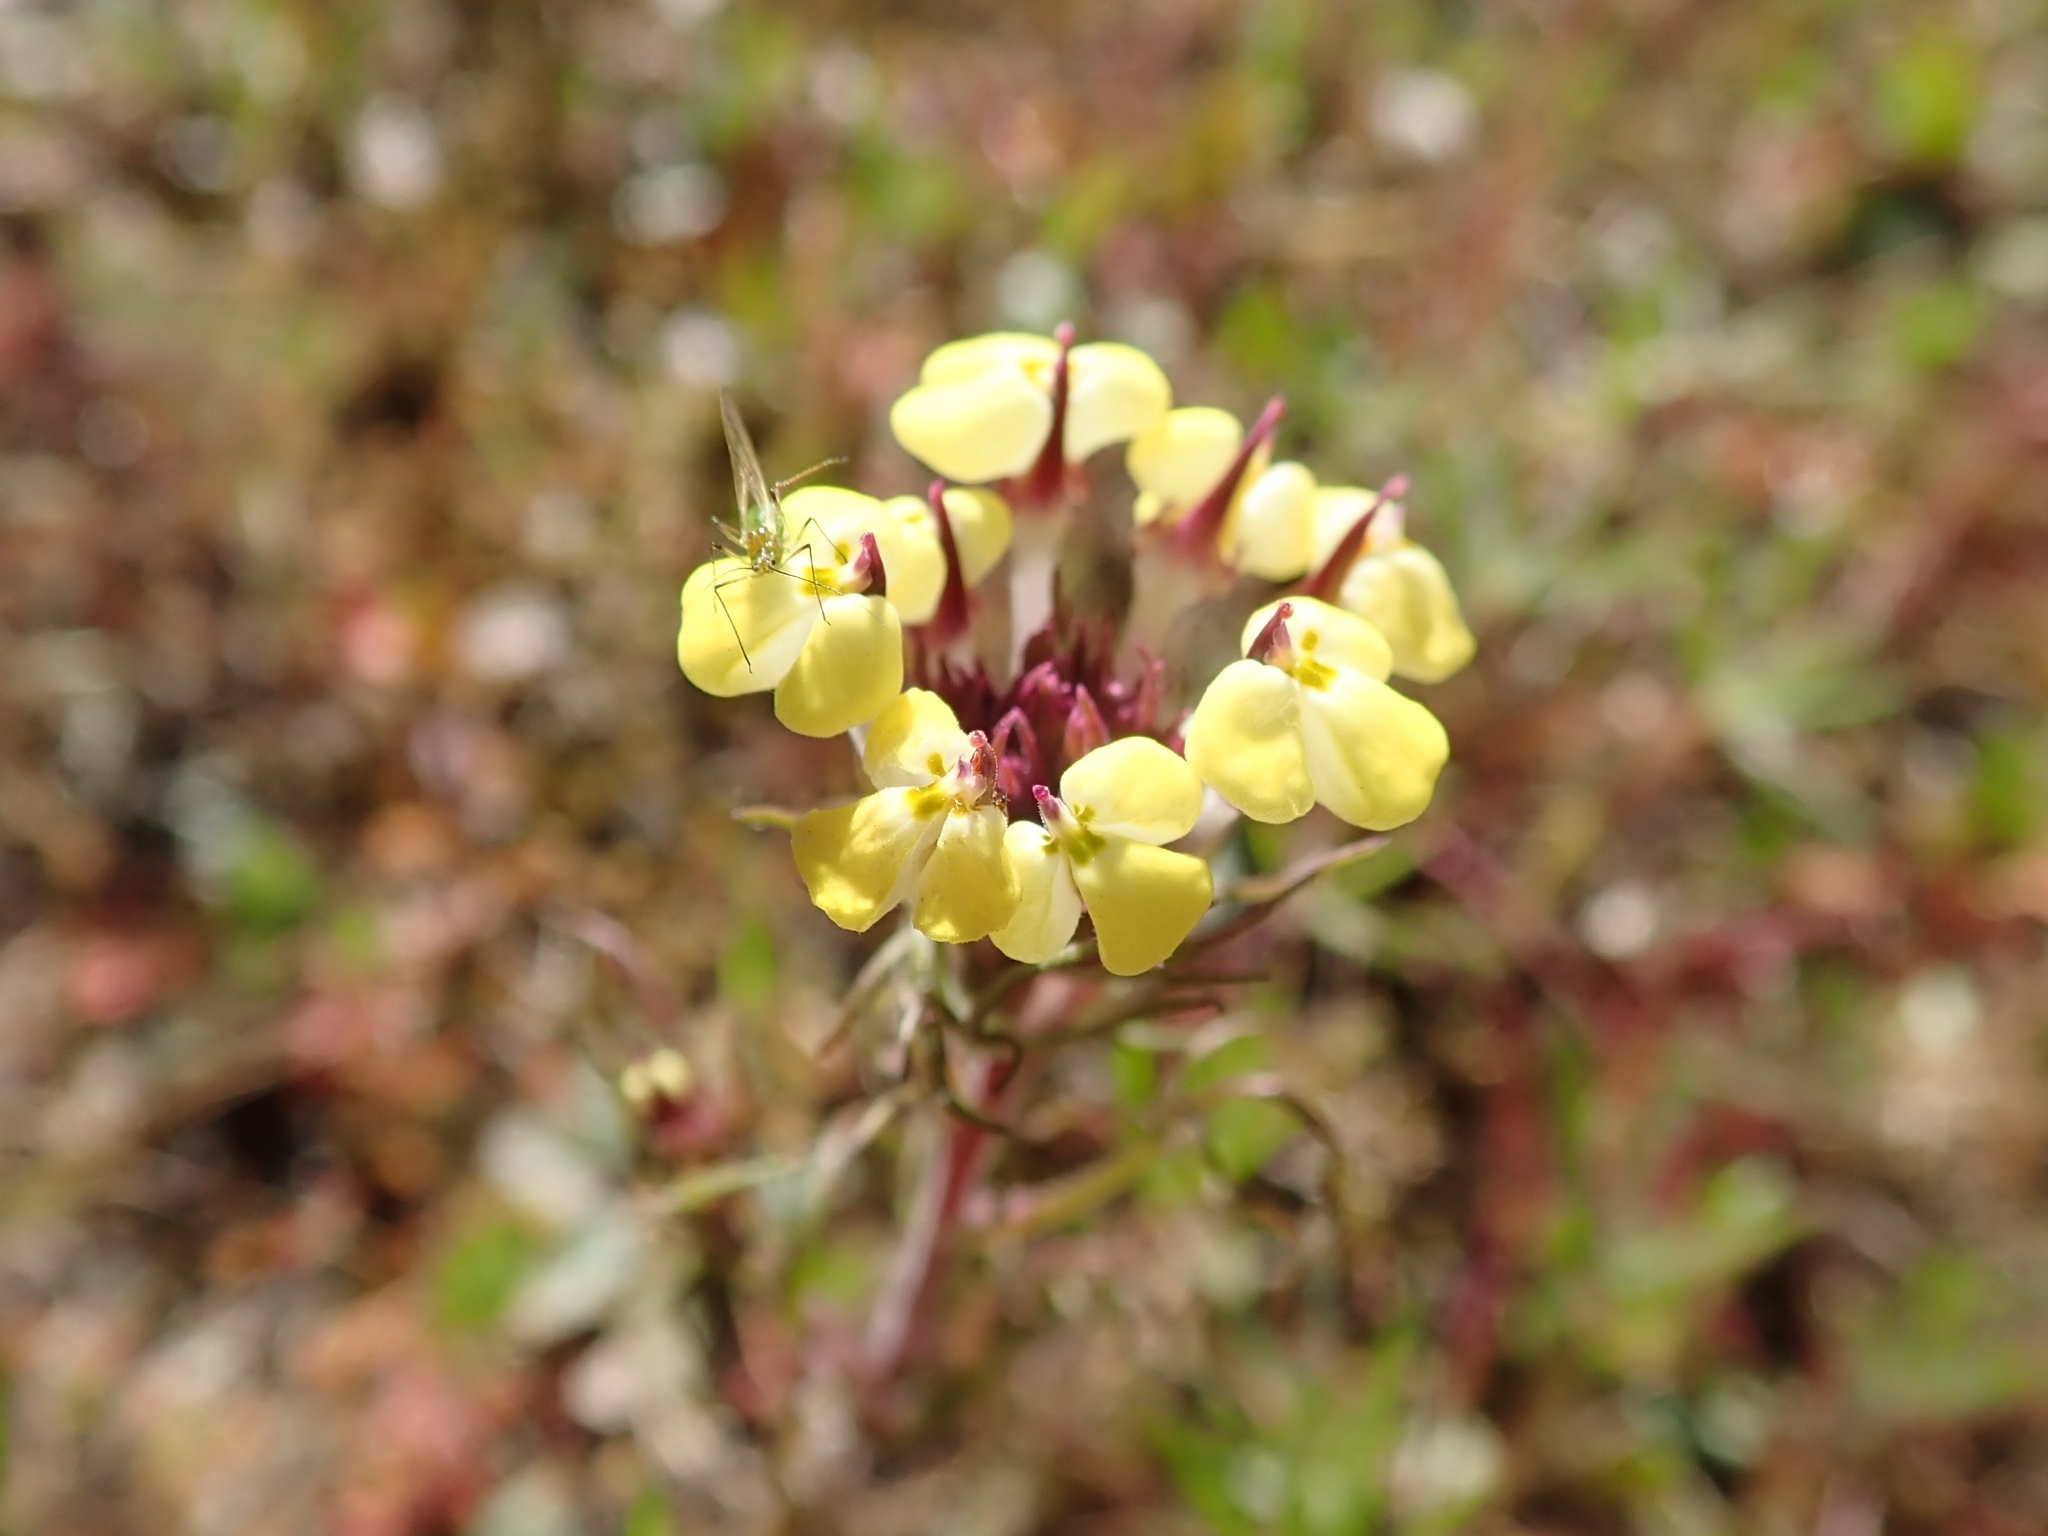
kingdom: Plantae
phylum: Tracheophyta
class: Magnoliopsida
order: Lamiales
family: Orobanchaceae
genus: Triphysaria
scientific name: Triphysaria eriantha
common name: Johnny-tuck
